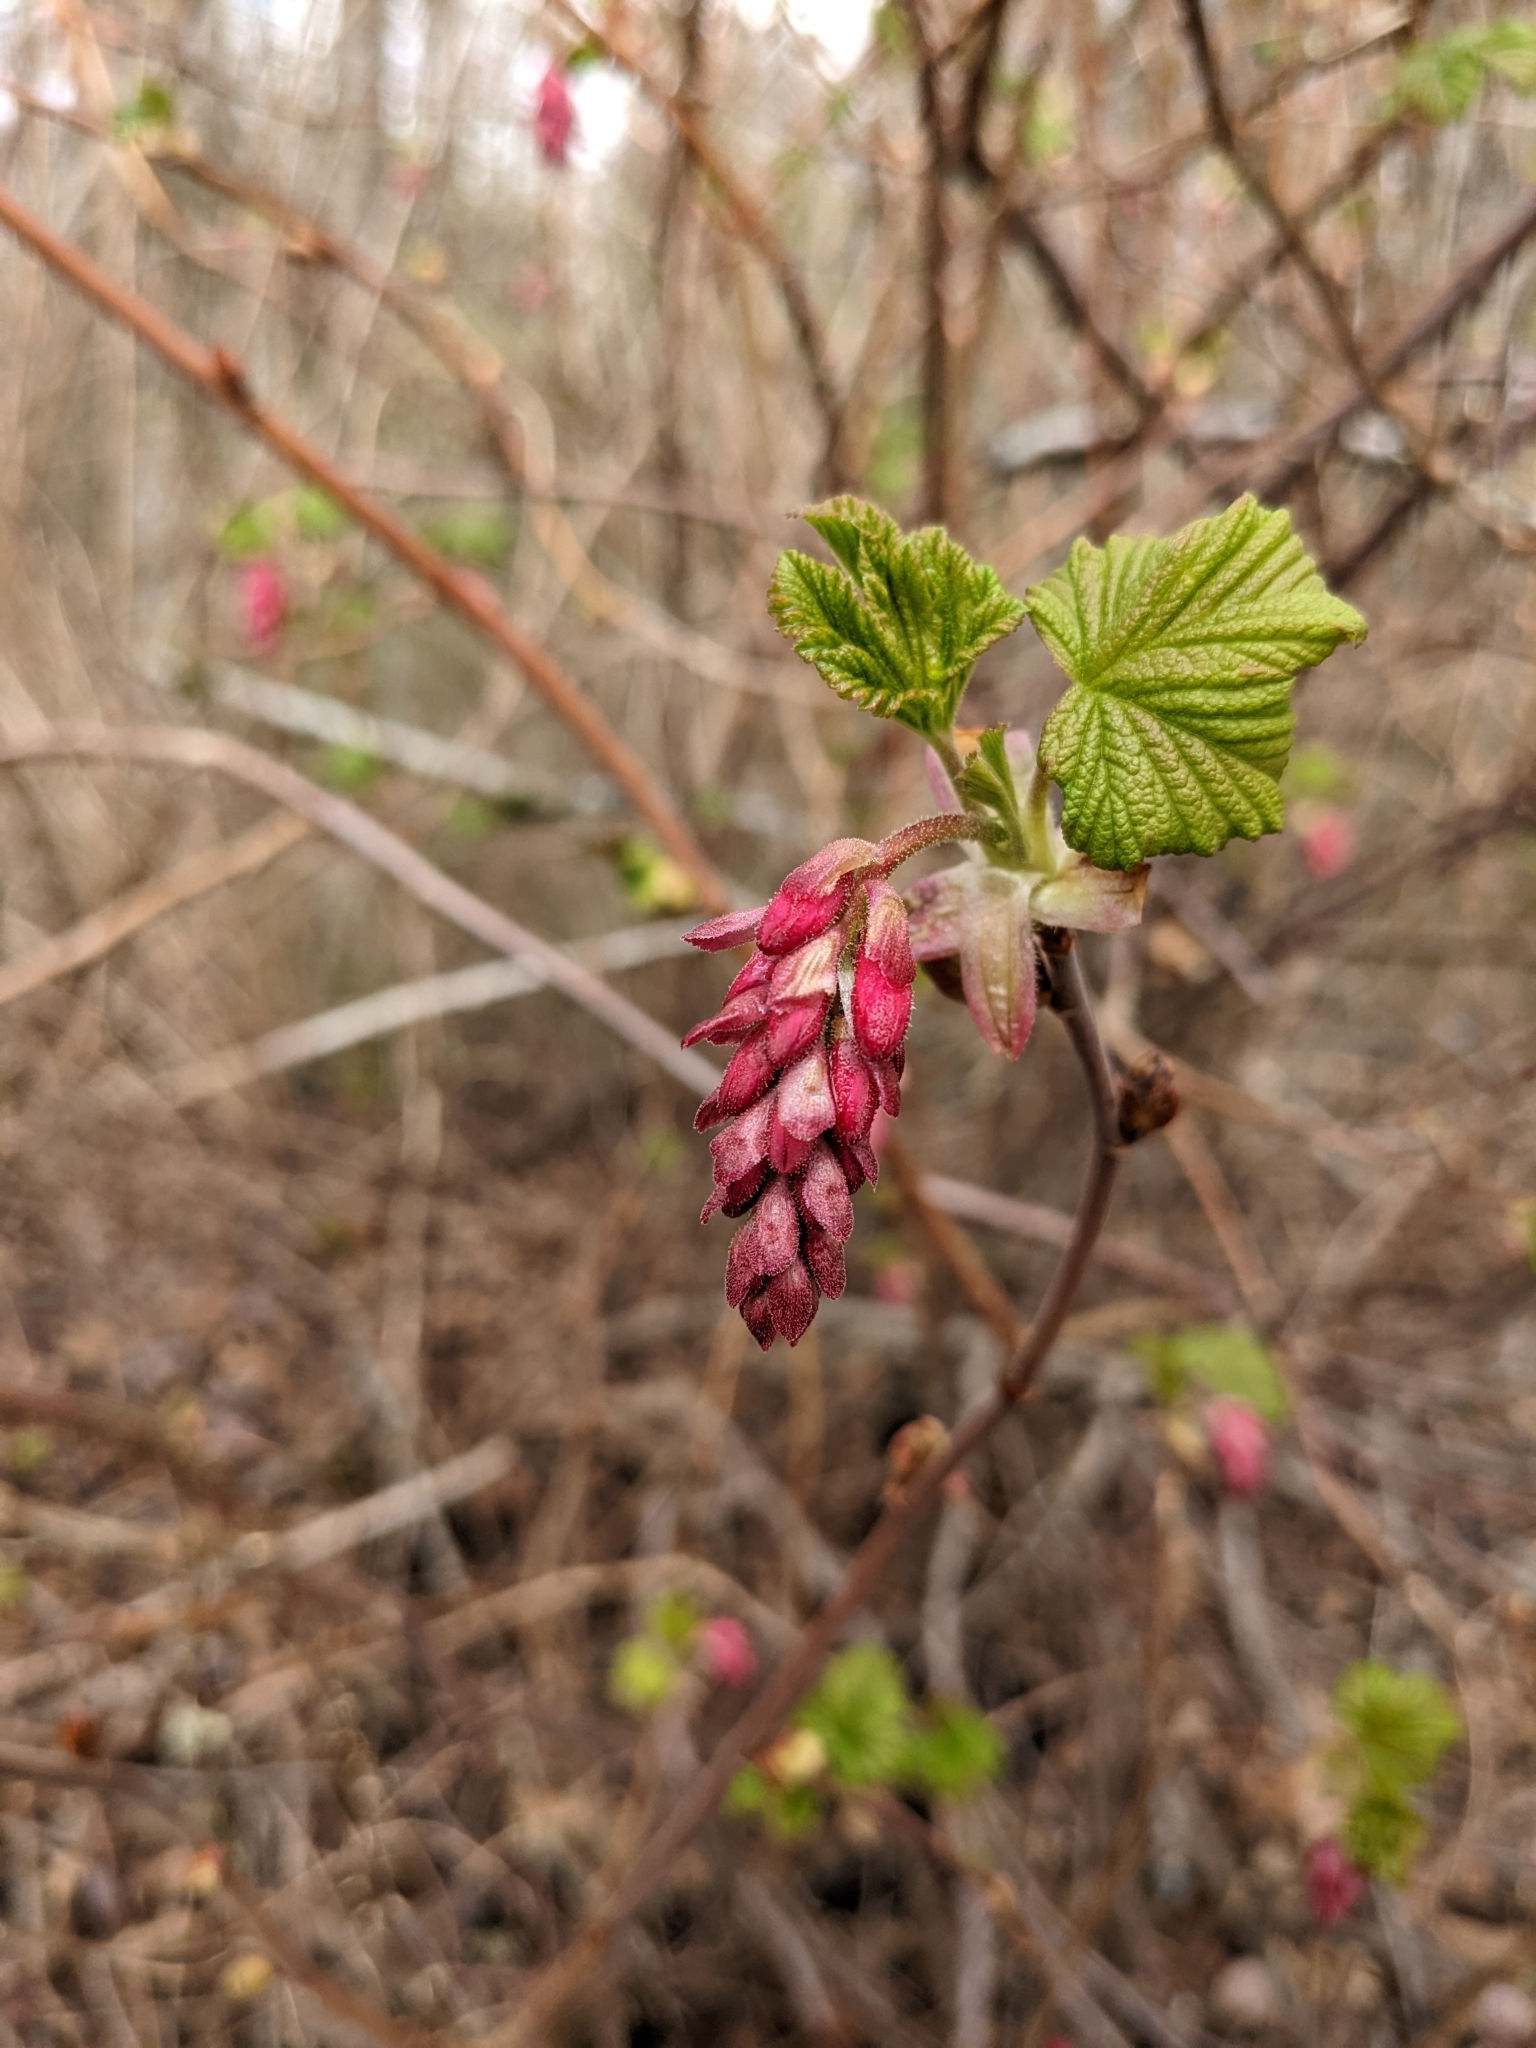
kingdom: Plantae
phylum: Tracheophyta
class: Magnoliopsida
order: Saxifragales
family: Grossulariaceae
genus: Ribes
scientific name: Ribes sanguineum
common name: Flowering currant
